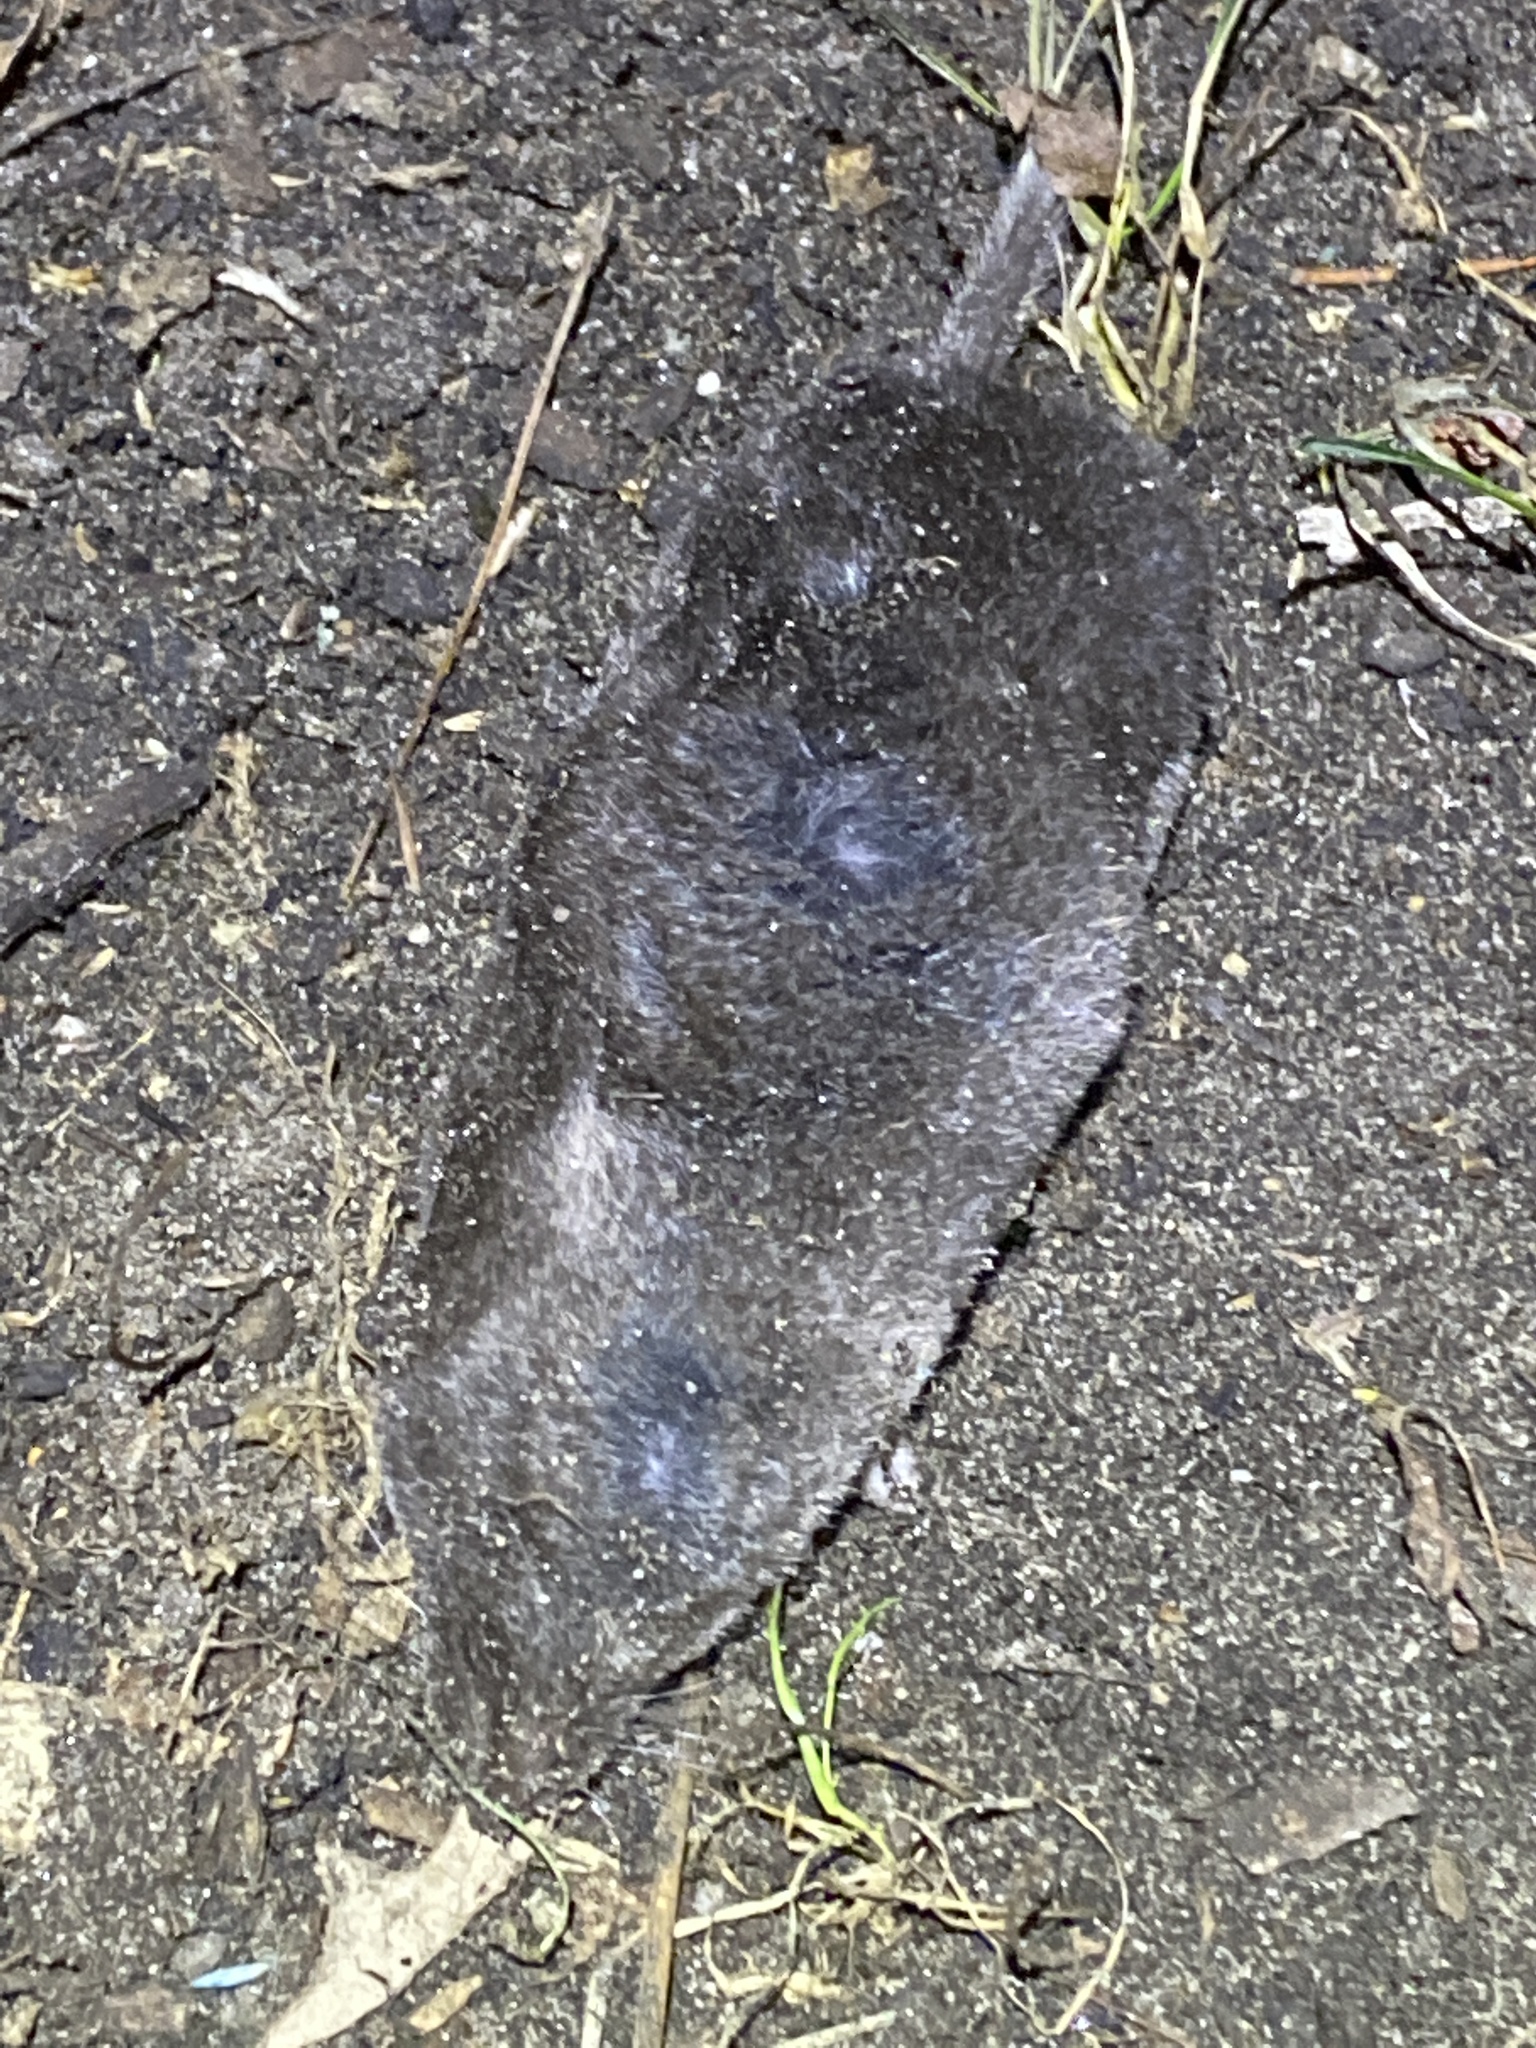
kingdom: Animalia
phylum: Chordata
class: Mammalia
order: Soricomorpha
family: Soricidae
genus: Blarina
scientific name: Blarina brevicauda
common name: Northern short-tailed shrew
